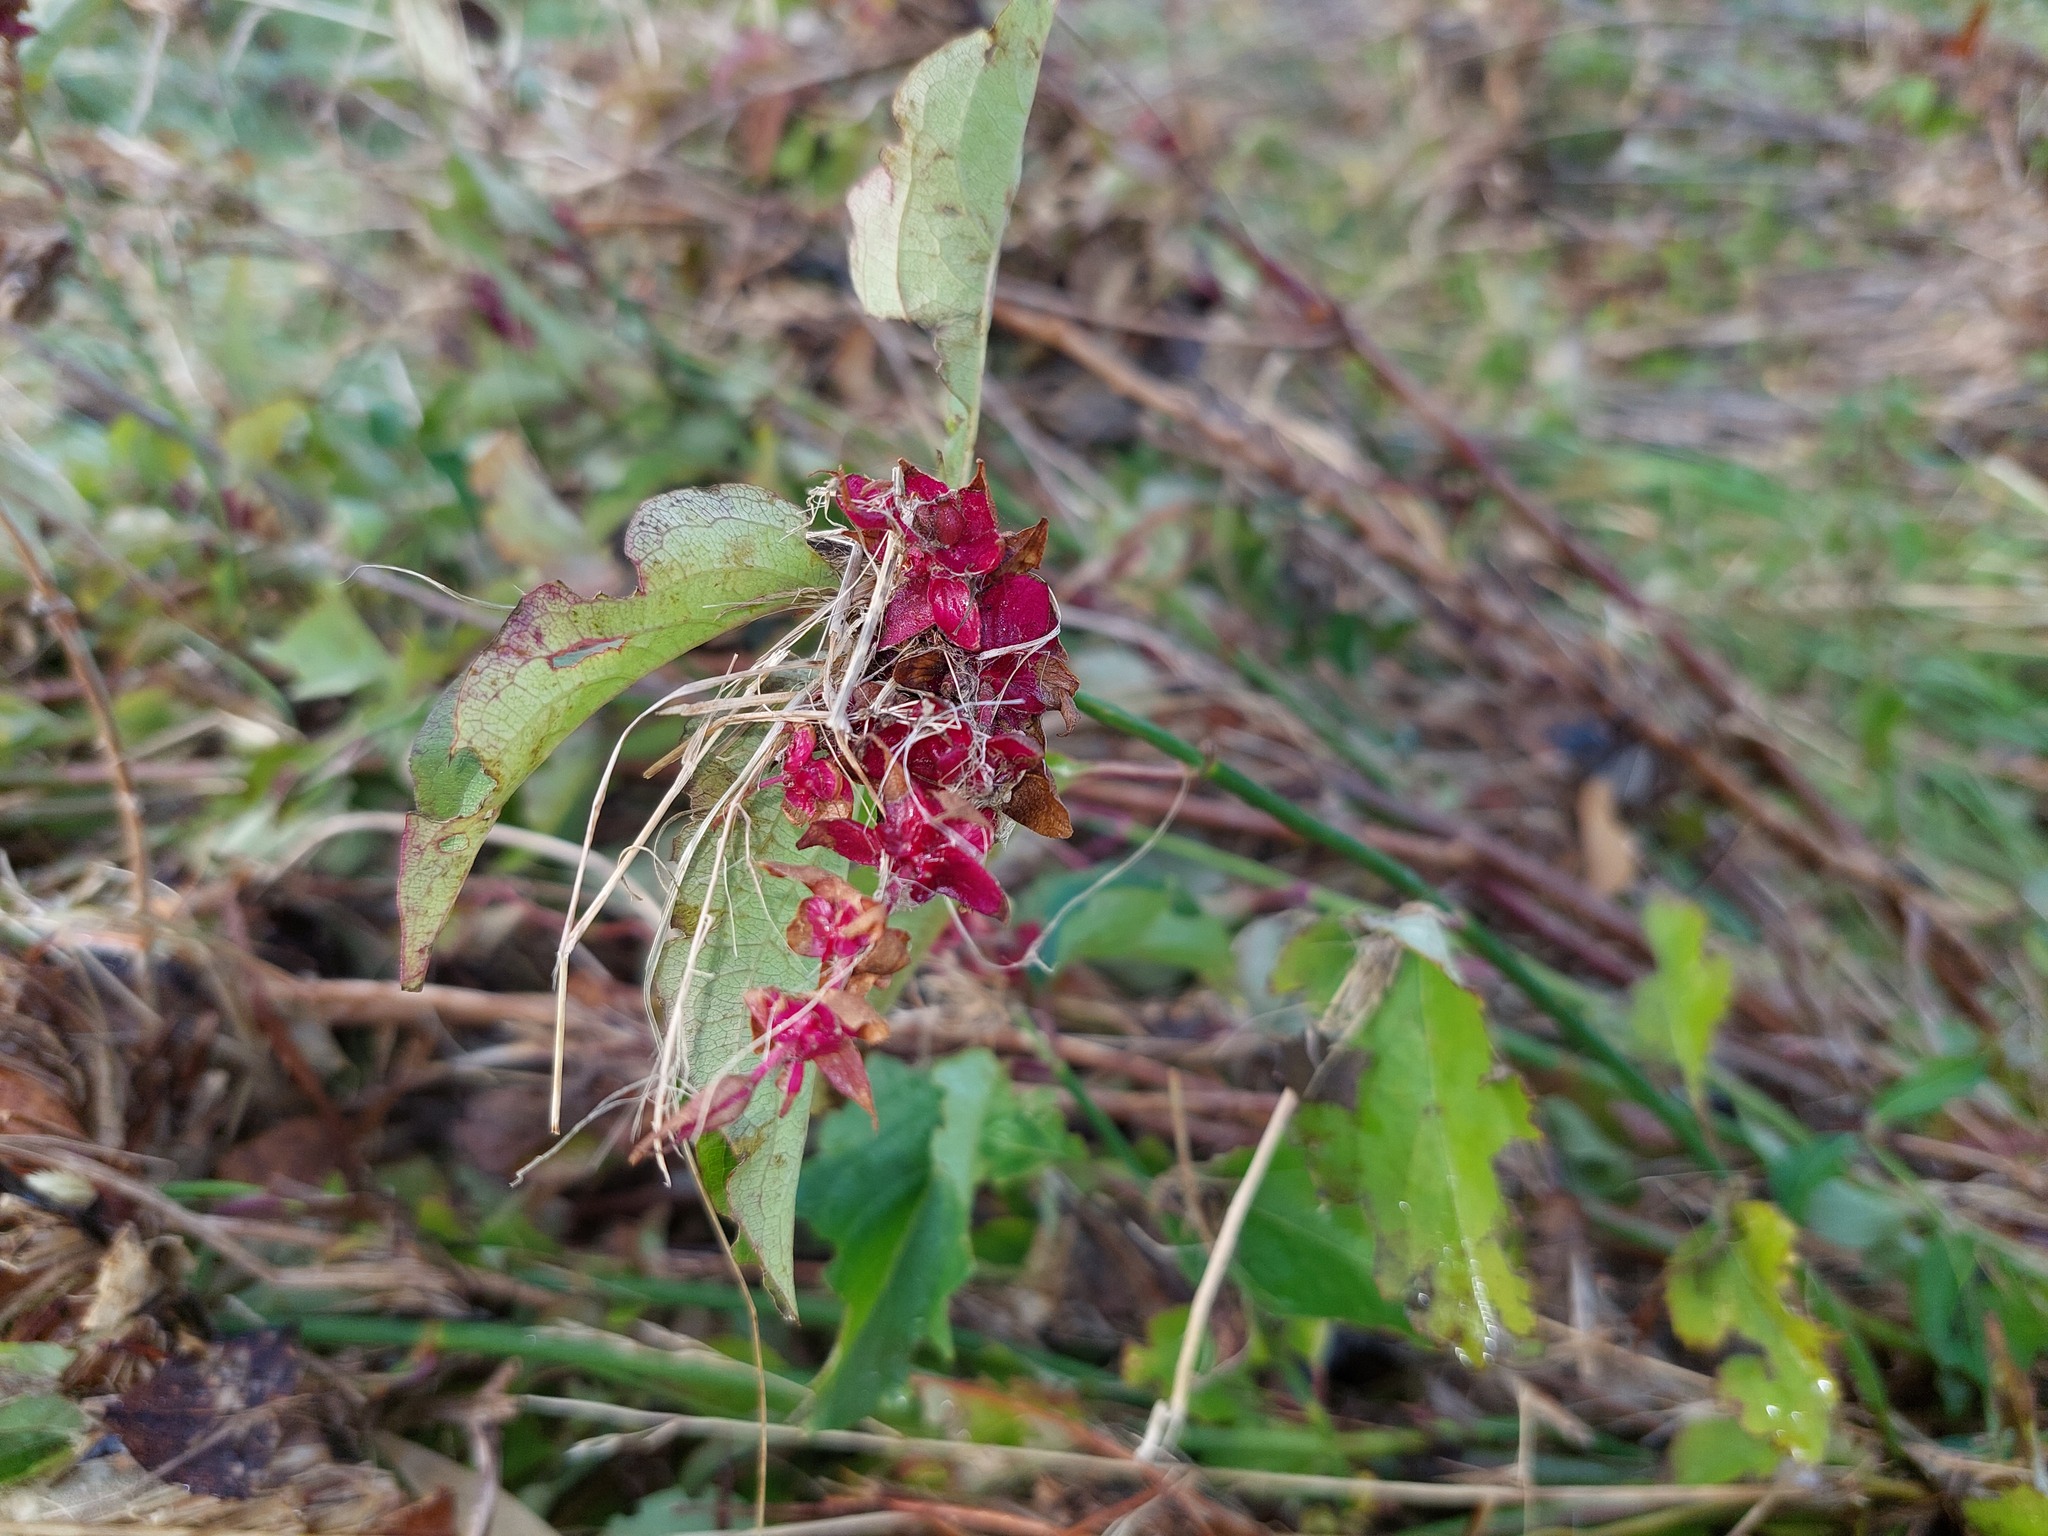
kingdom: Plantae
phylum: Tracheophyta
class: Magnoliopsida
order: Dipsacales
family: Caprifoliaceae
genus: Leycesteria
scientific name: Leycesteria formosa
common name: Himalayan honeysuckle
